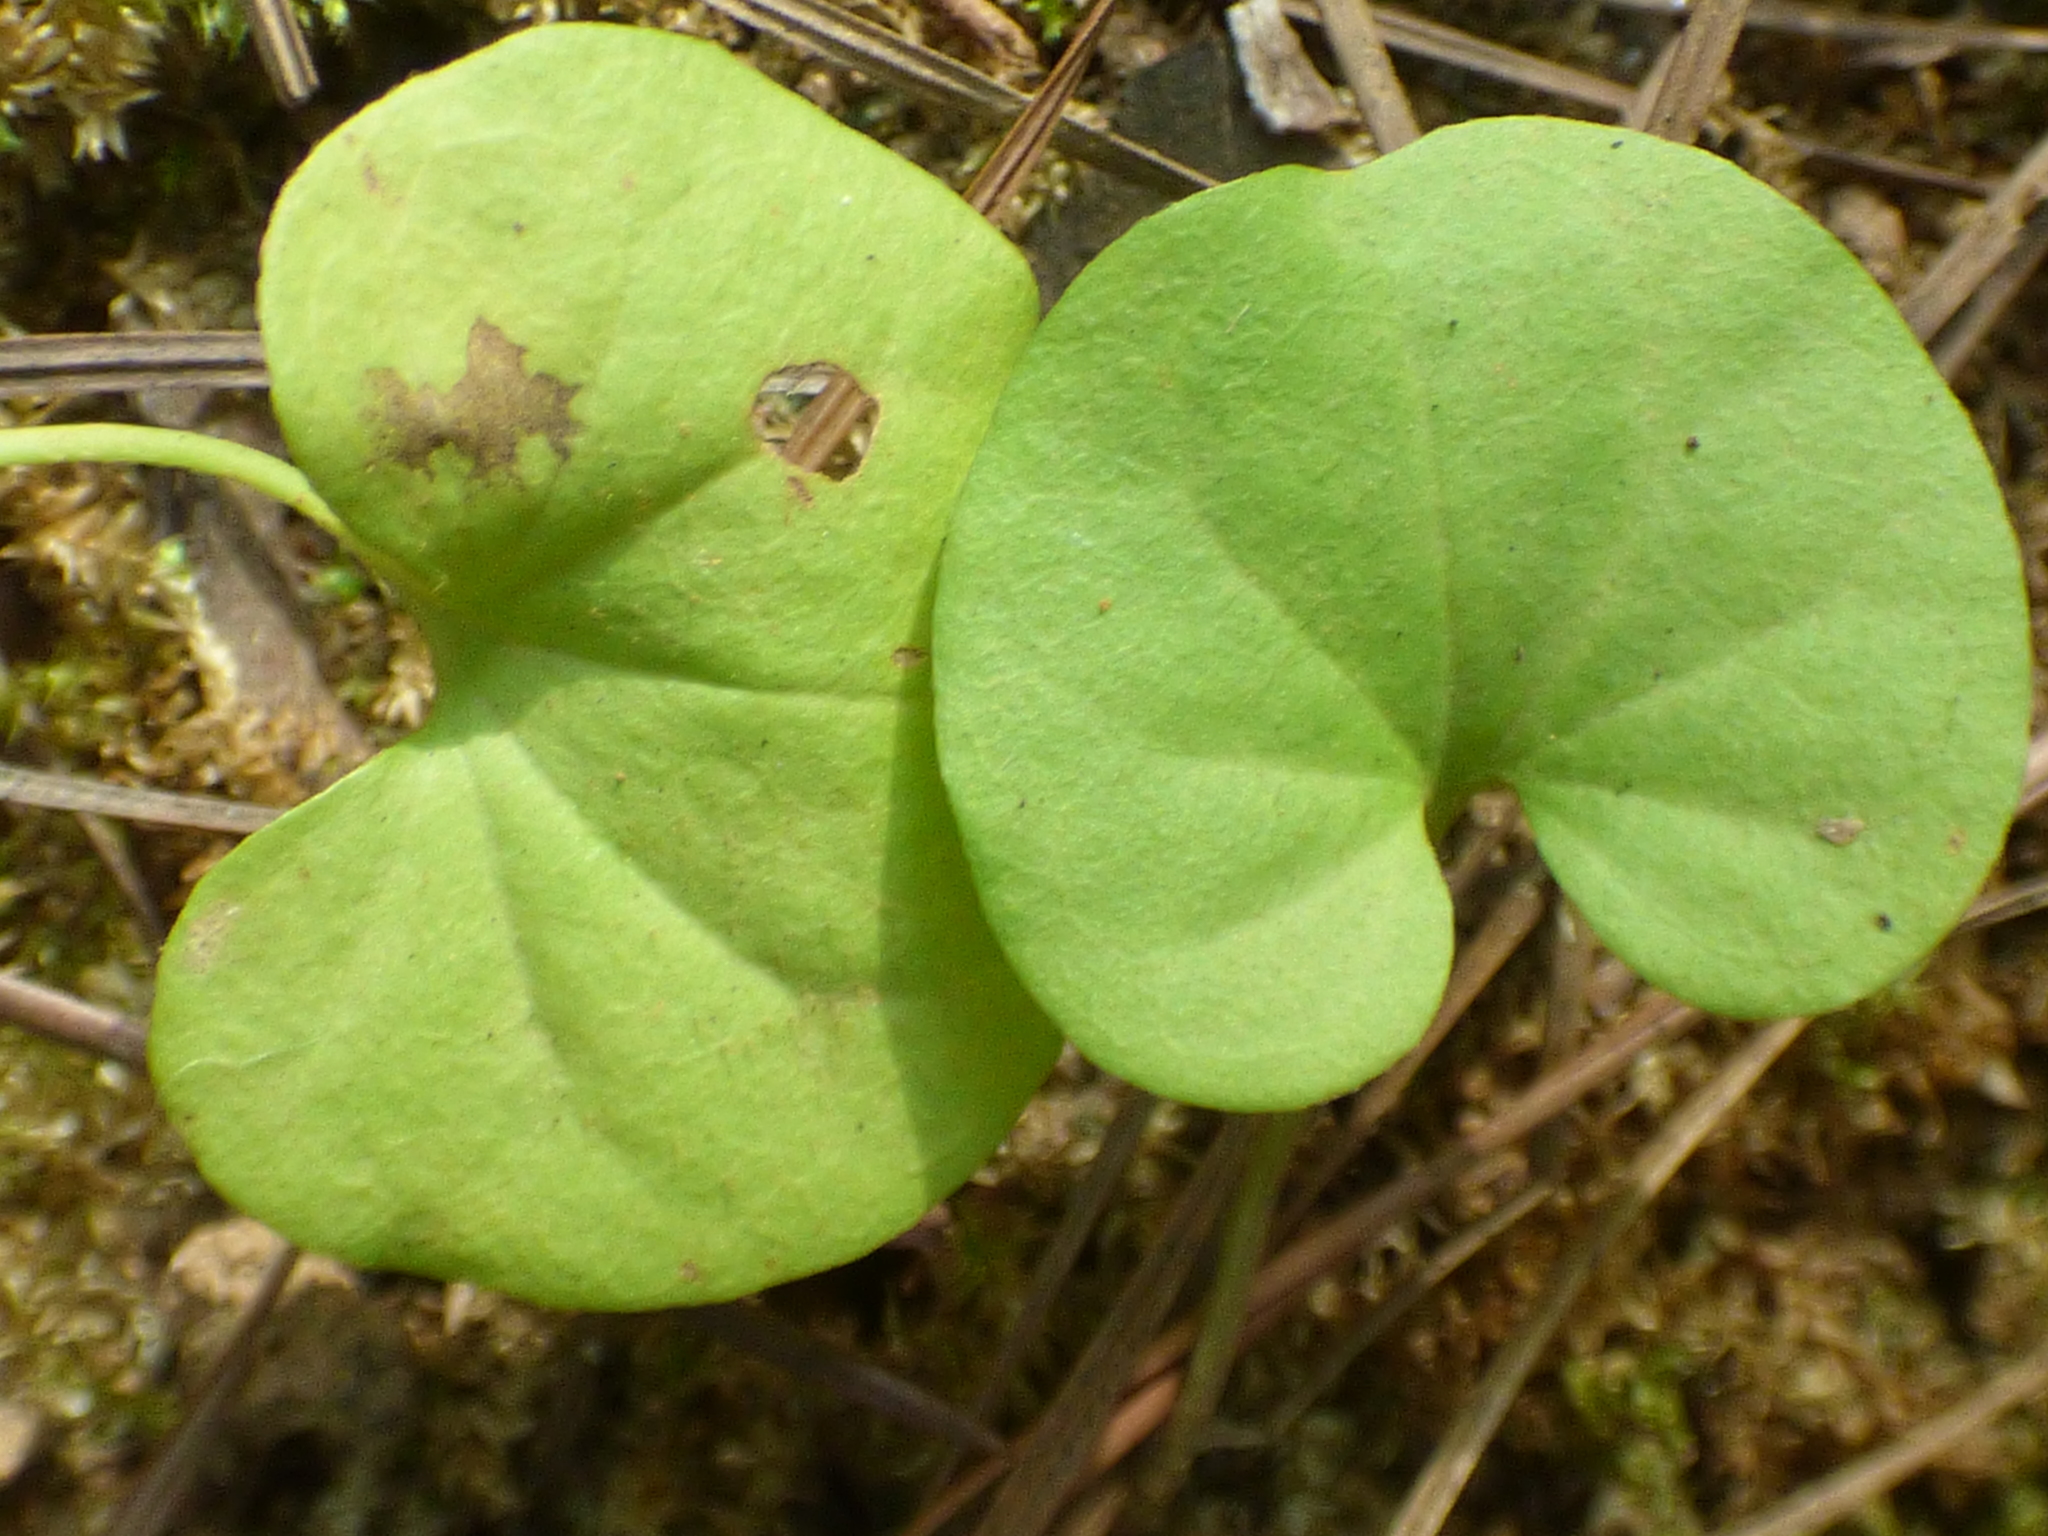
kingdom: Plantae
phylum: Tracheophyta
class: Magnoliopsida
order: Solanales
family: Convolvulaceae
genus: Dichondra
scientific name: Dichondra carolinensis
